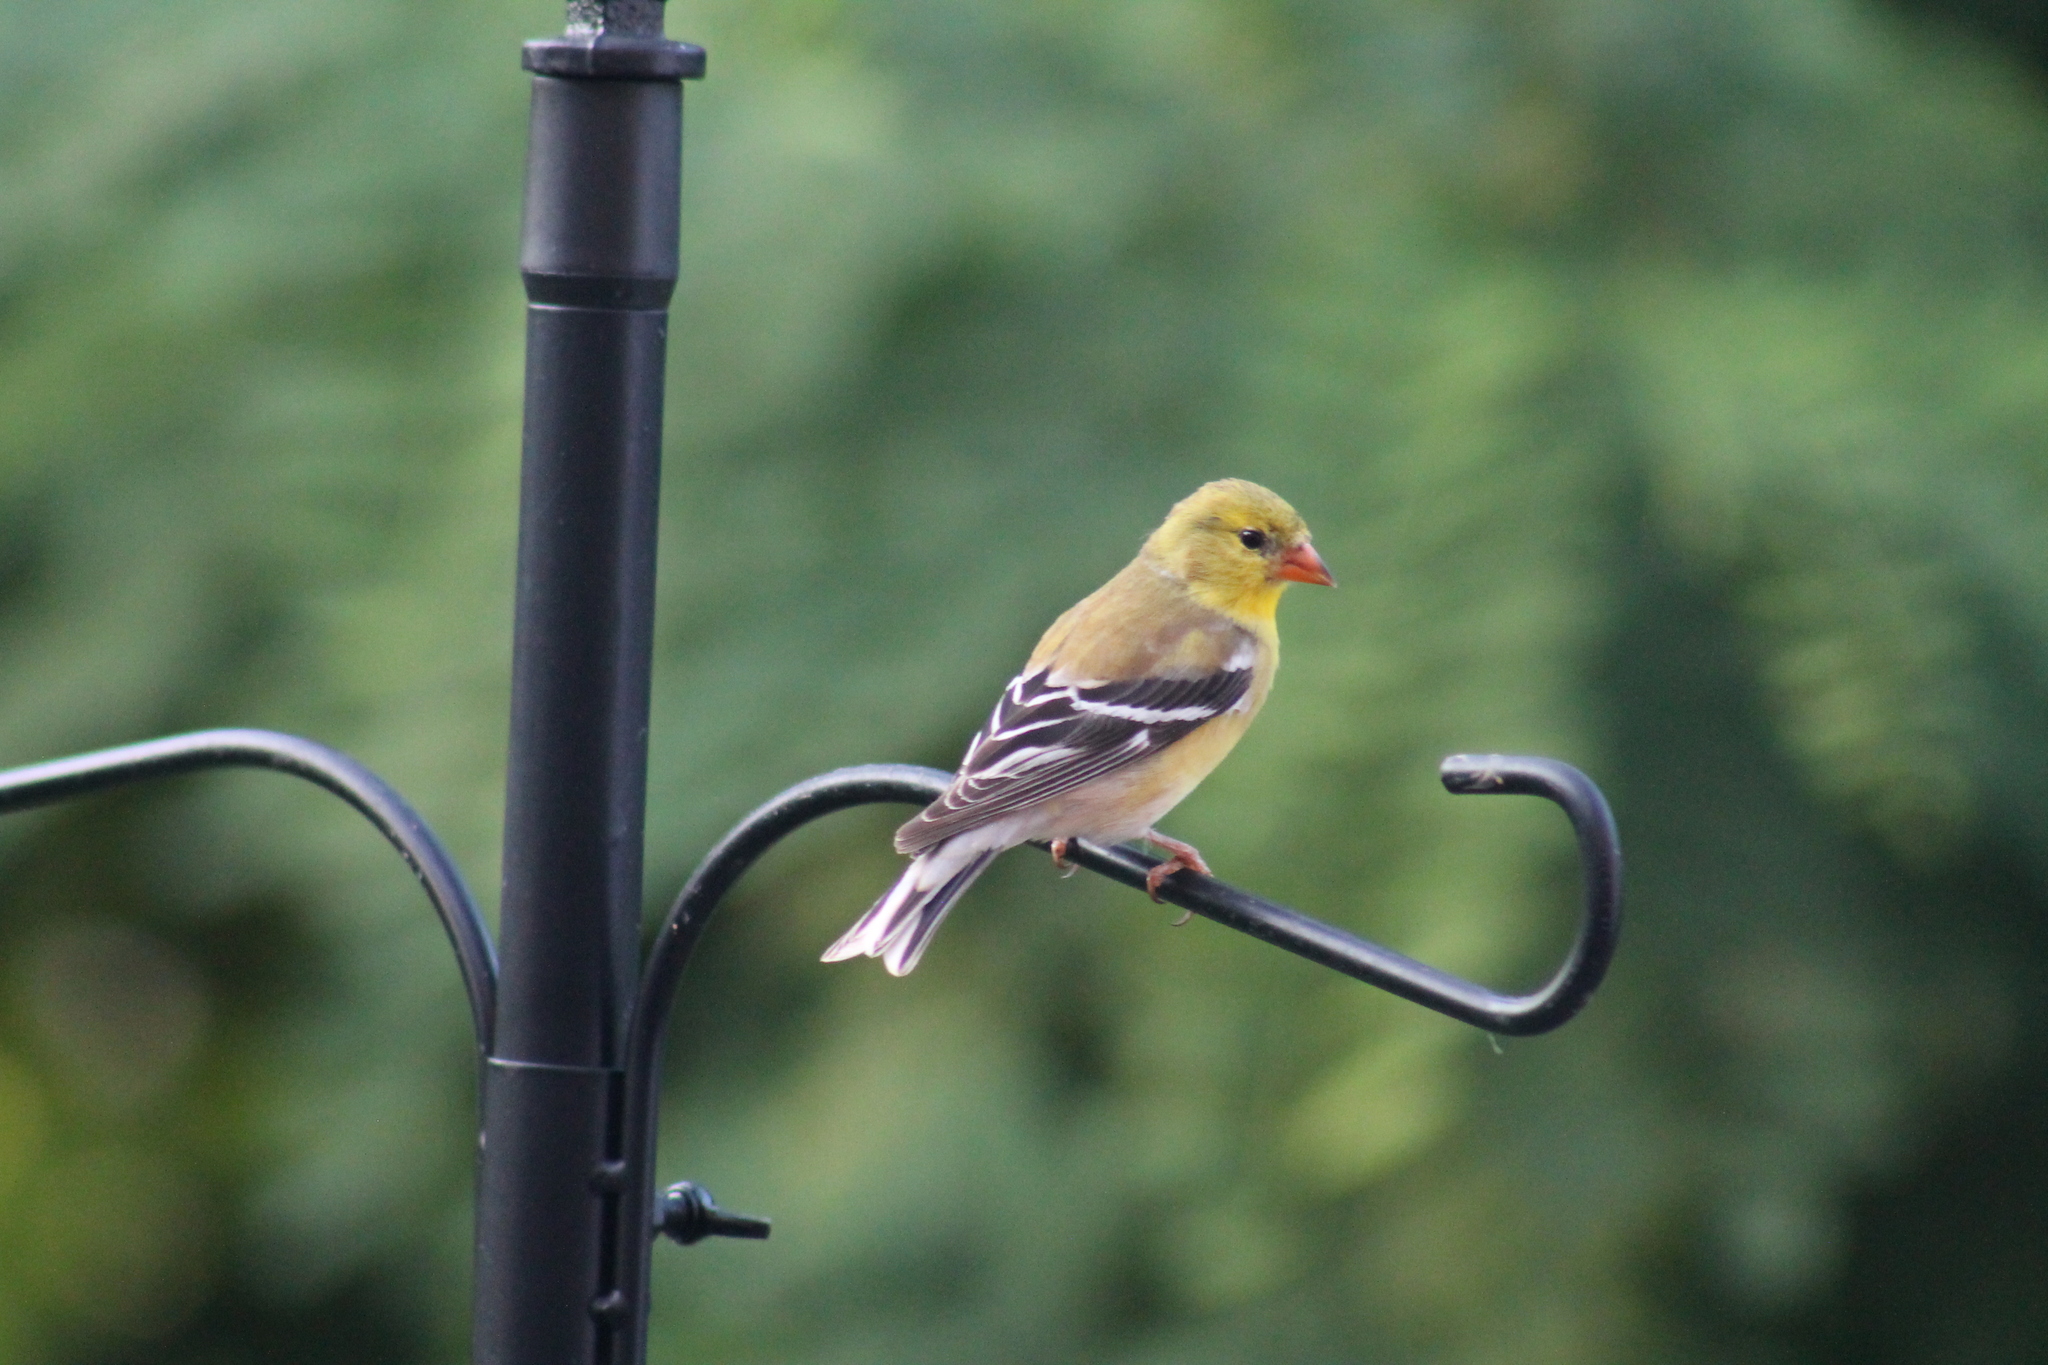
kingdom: Animalia
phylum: Chordata
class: Aves
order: Passeriformes
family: Fringillidae
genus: Spinus
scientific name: Spinus tristis
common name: American goldfinch
